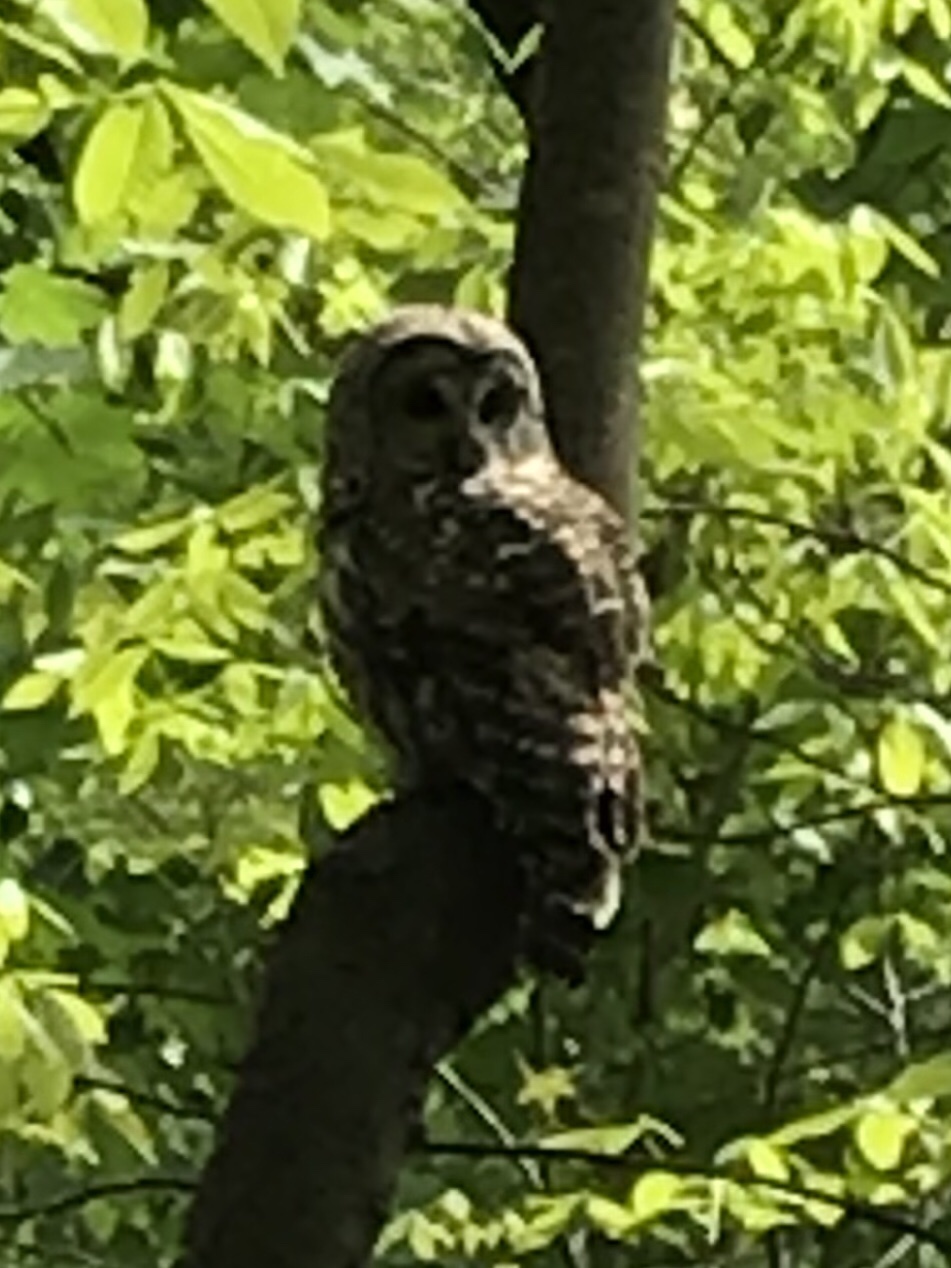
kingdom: Animalia
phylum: Chordata
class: Aves
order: Strigiformes
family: Strigidae
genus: Strix
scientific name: Strix varia
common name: Barred owl
